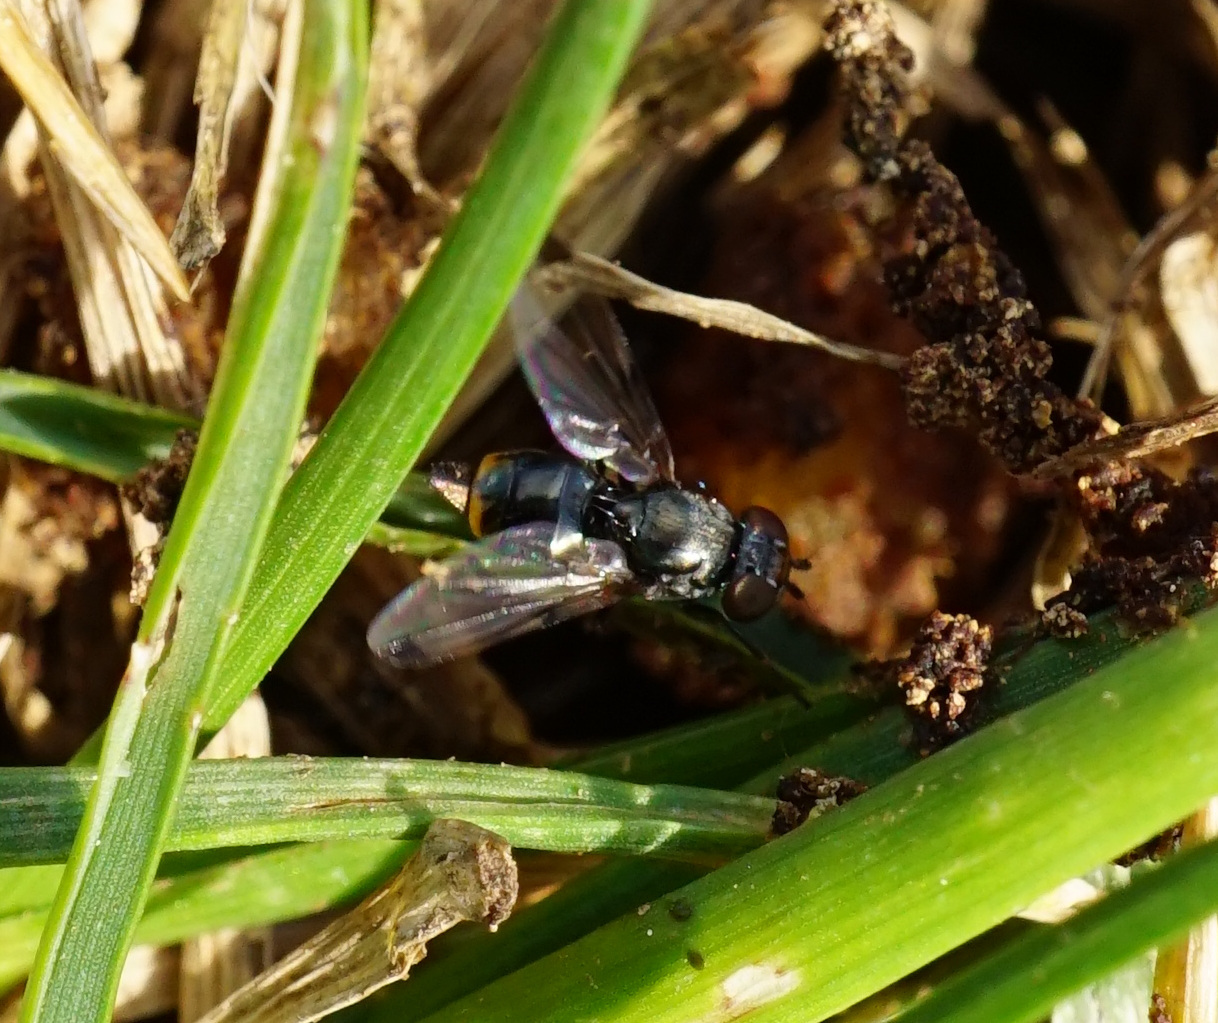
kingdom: Animalia
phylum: Arthropoda
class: Insecta
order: Diptera
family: Ulidiidae
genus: Euxesta
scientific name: Euxesta notata
